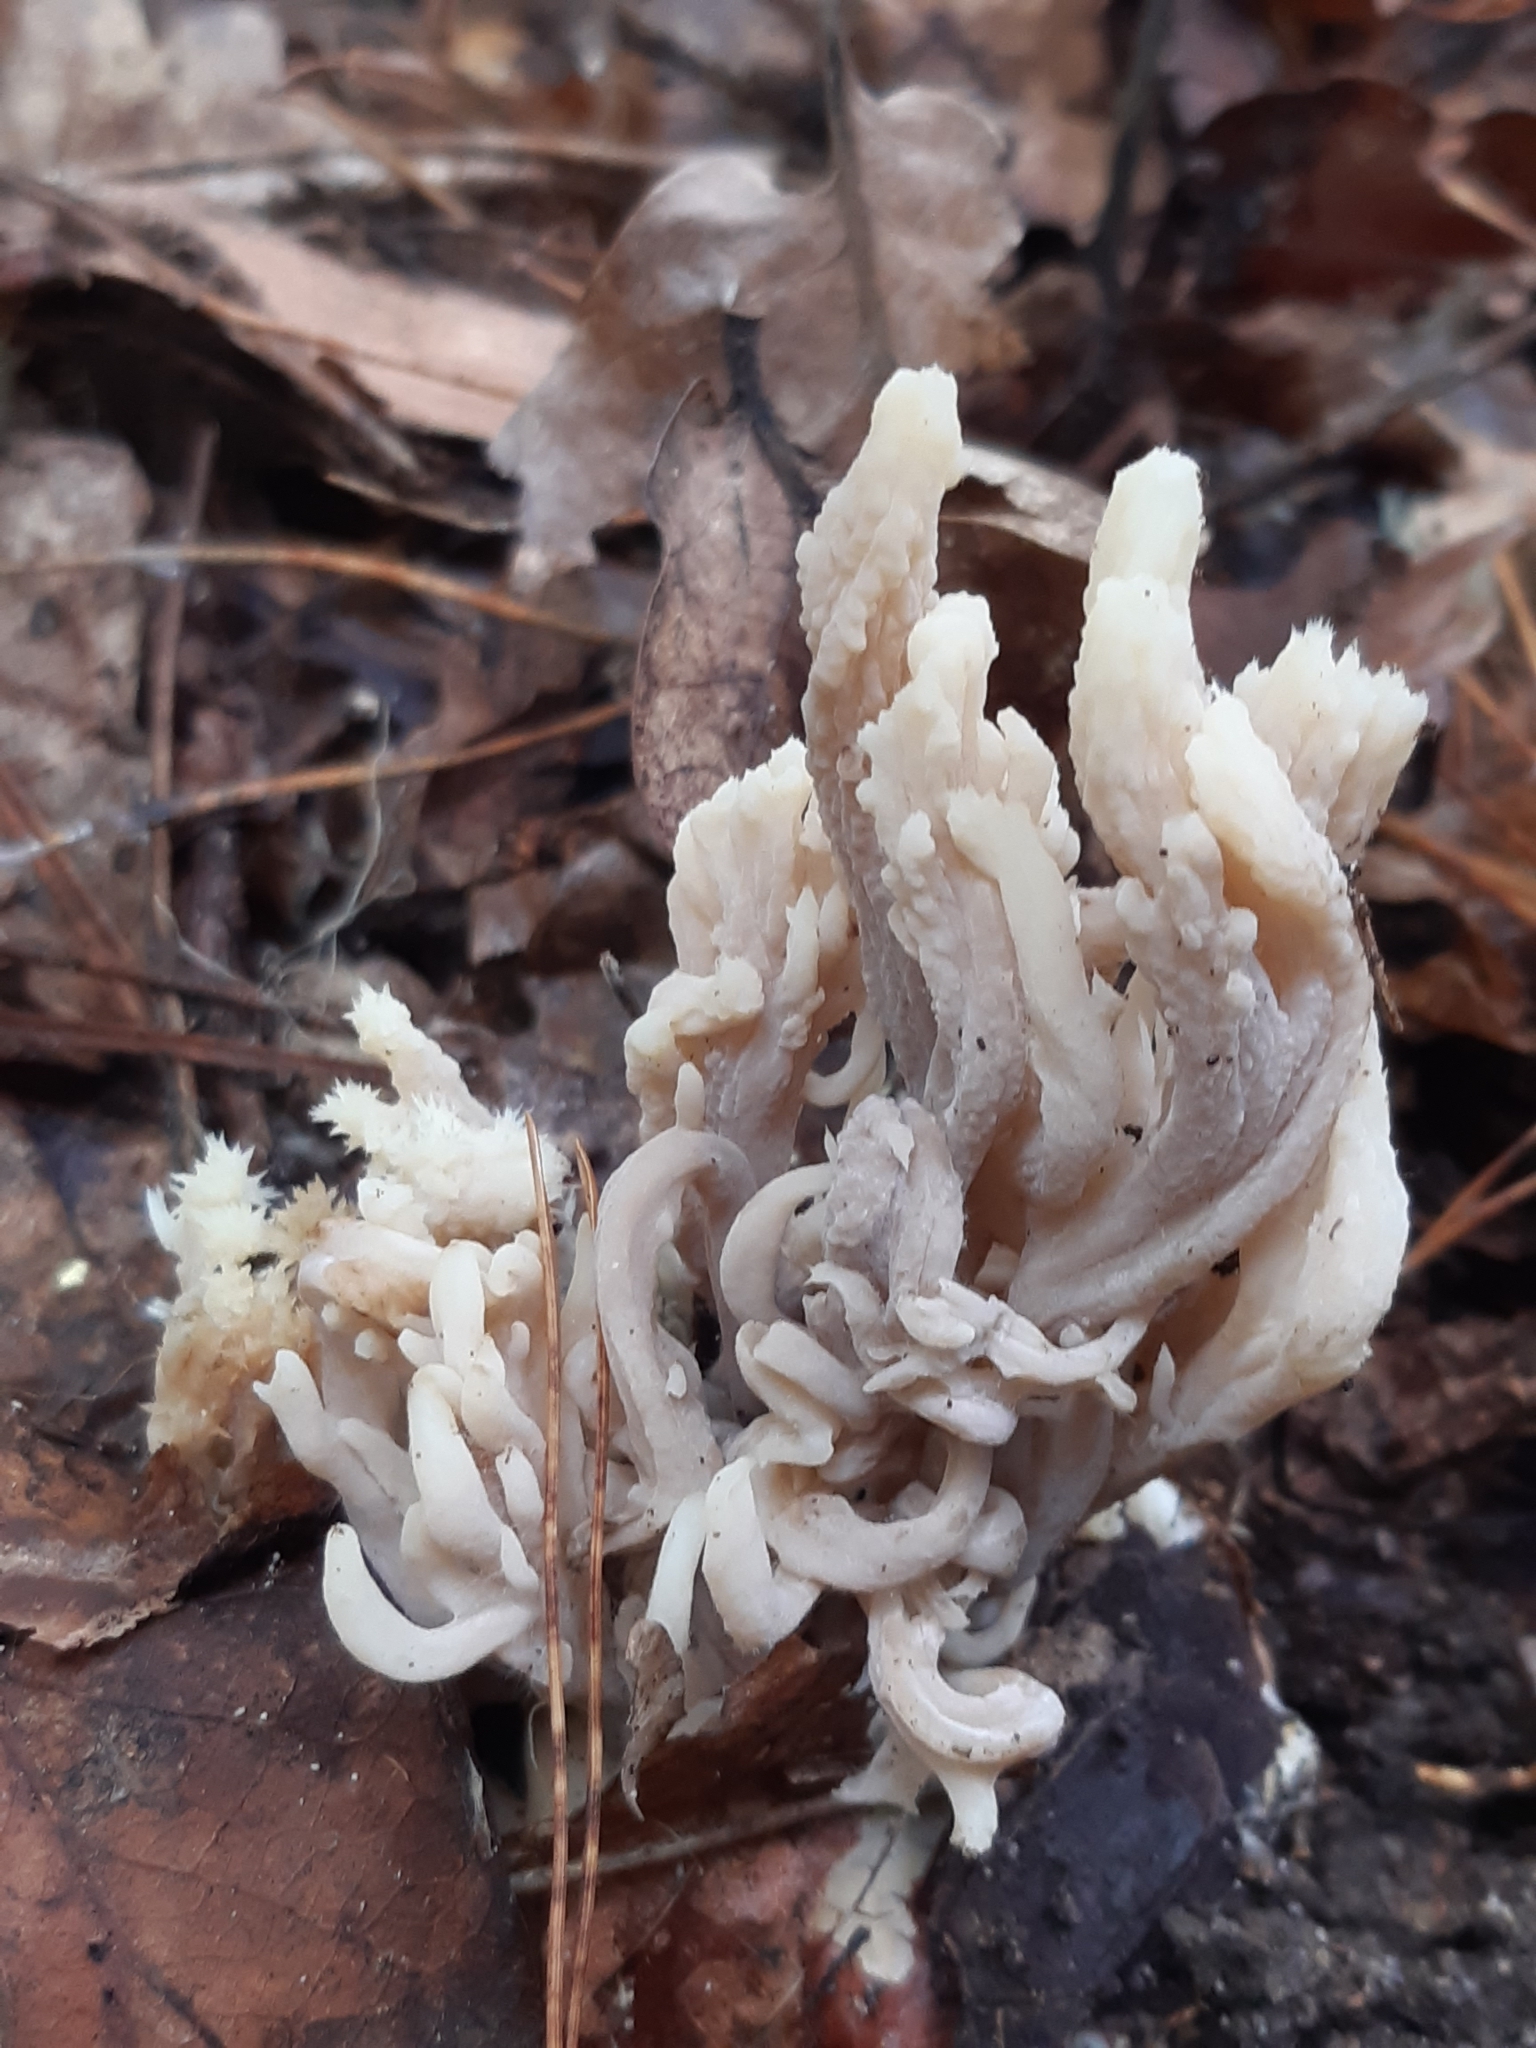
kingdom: Fungi
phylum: Basidiomycota
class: Agaricomycetes
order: Cantharellales
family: Hydnaceae
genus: Clavulina
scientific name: Clavulina coralloides
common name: Crested coral
